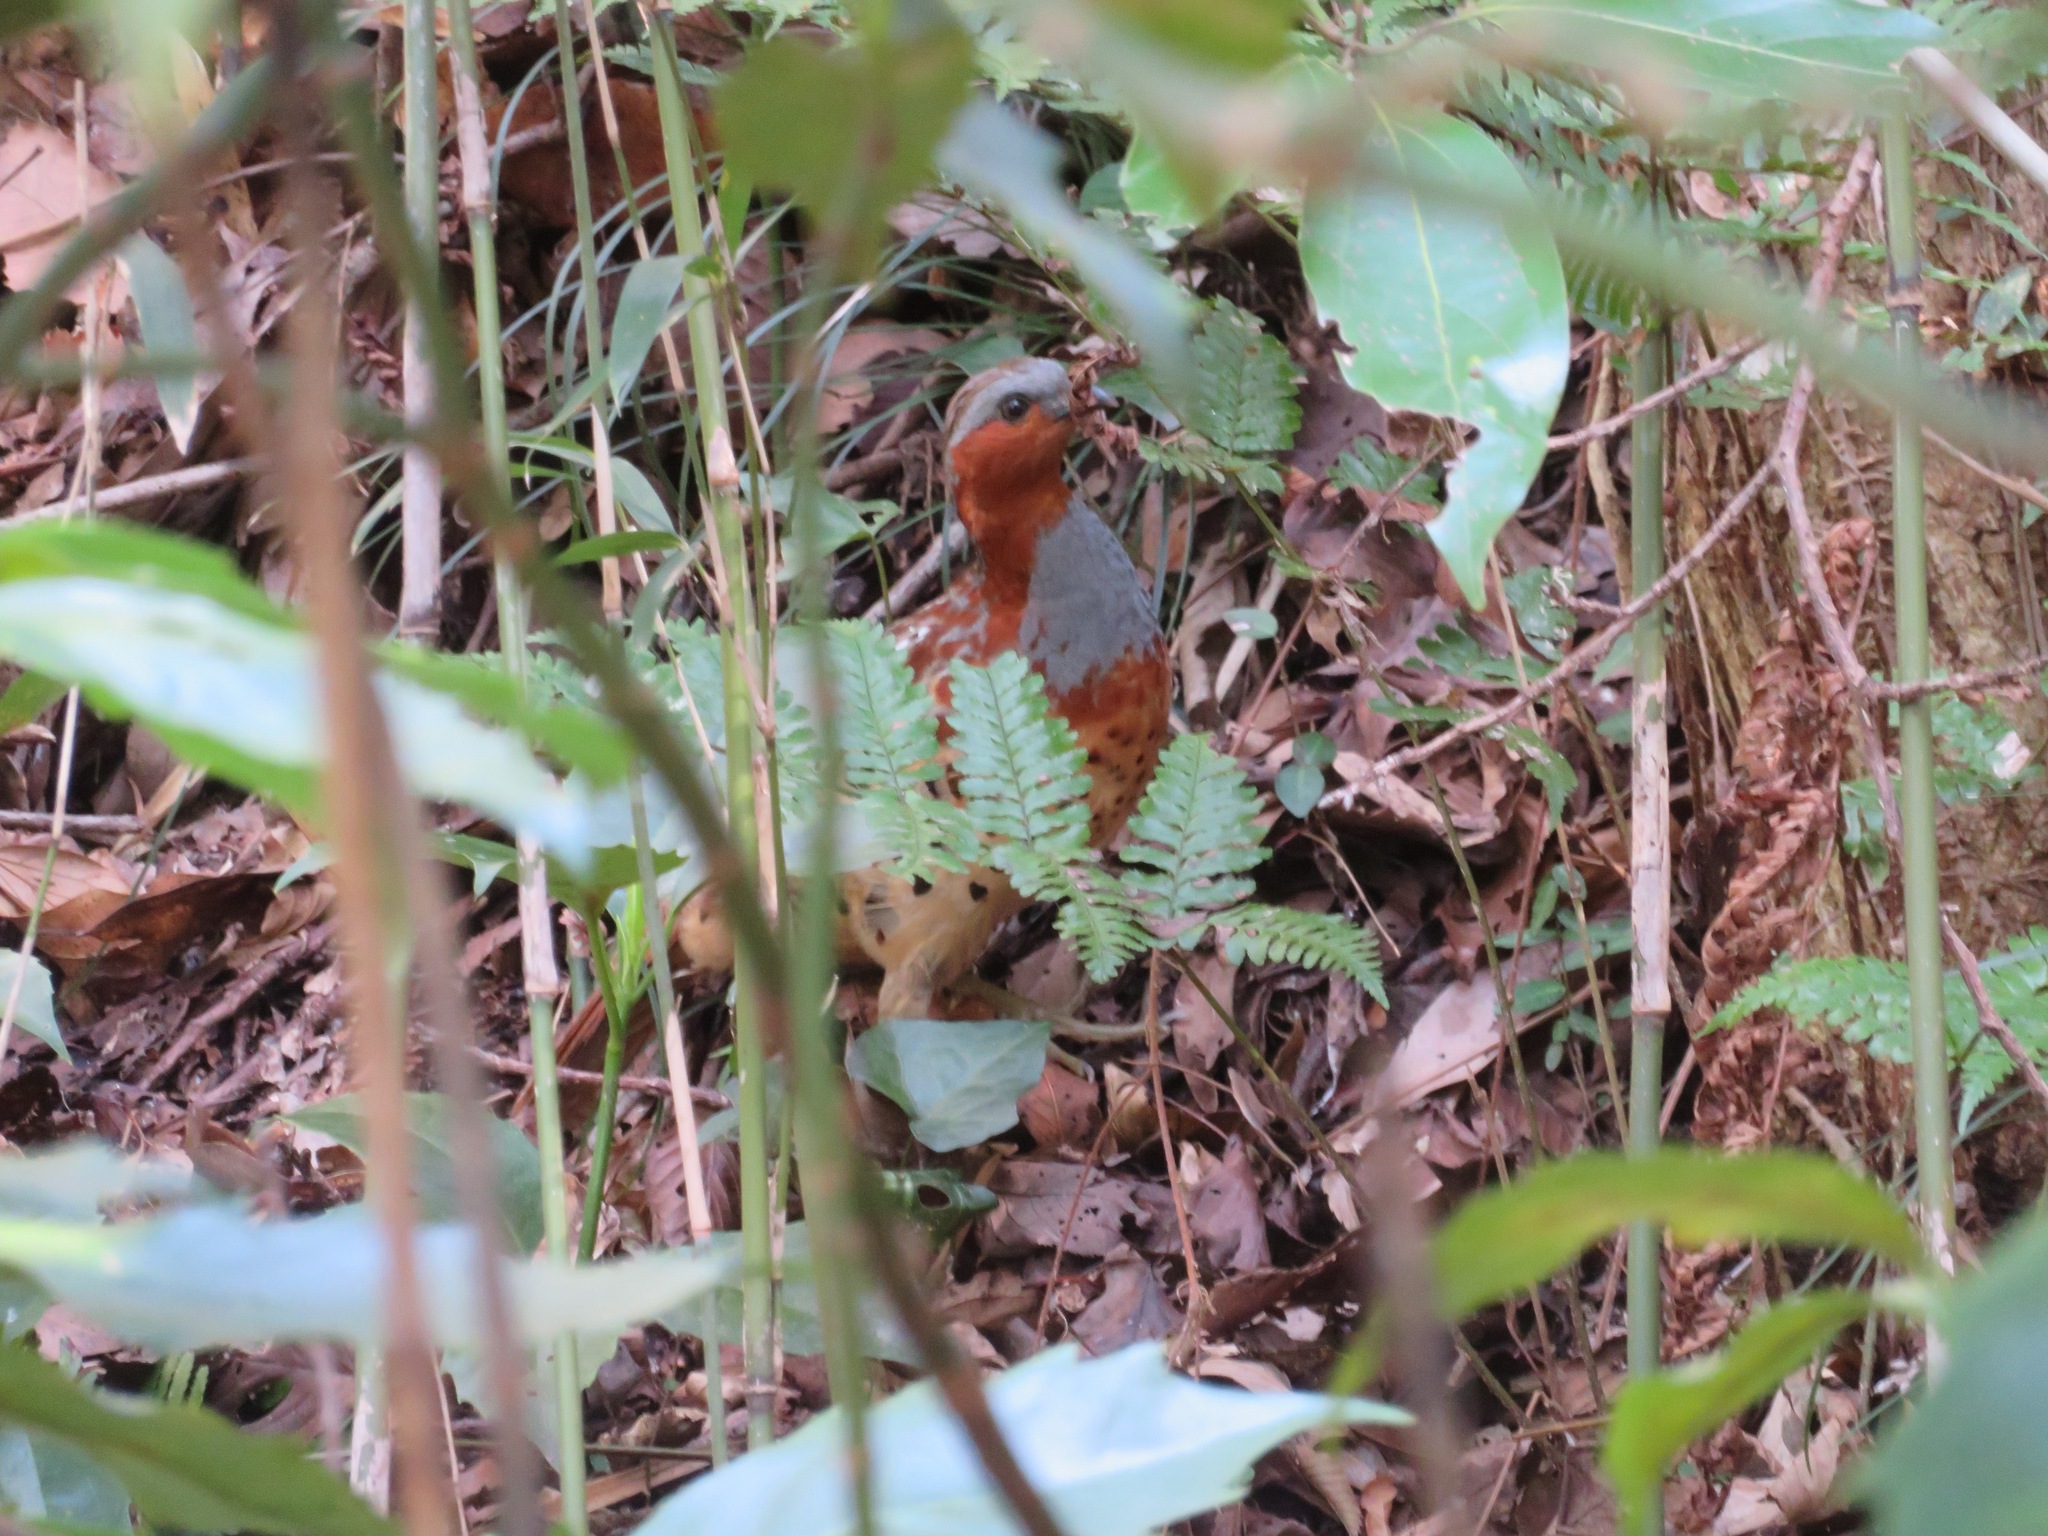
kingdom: Animalia
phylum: Chordata
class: Aves
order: Galliformes
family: Phasianidae
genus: Bambusicola
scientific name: Bambusicola thoracicus
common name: Chinese bamboo partridge
